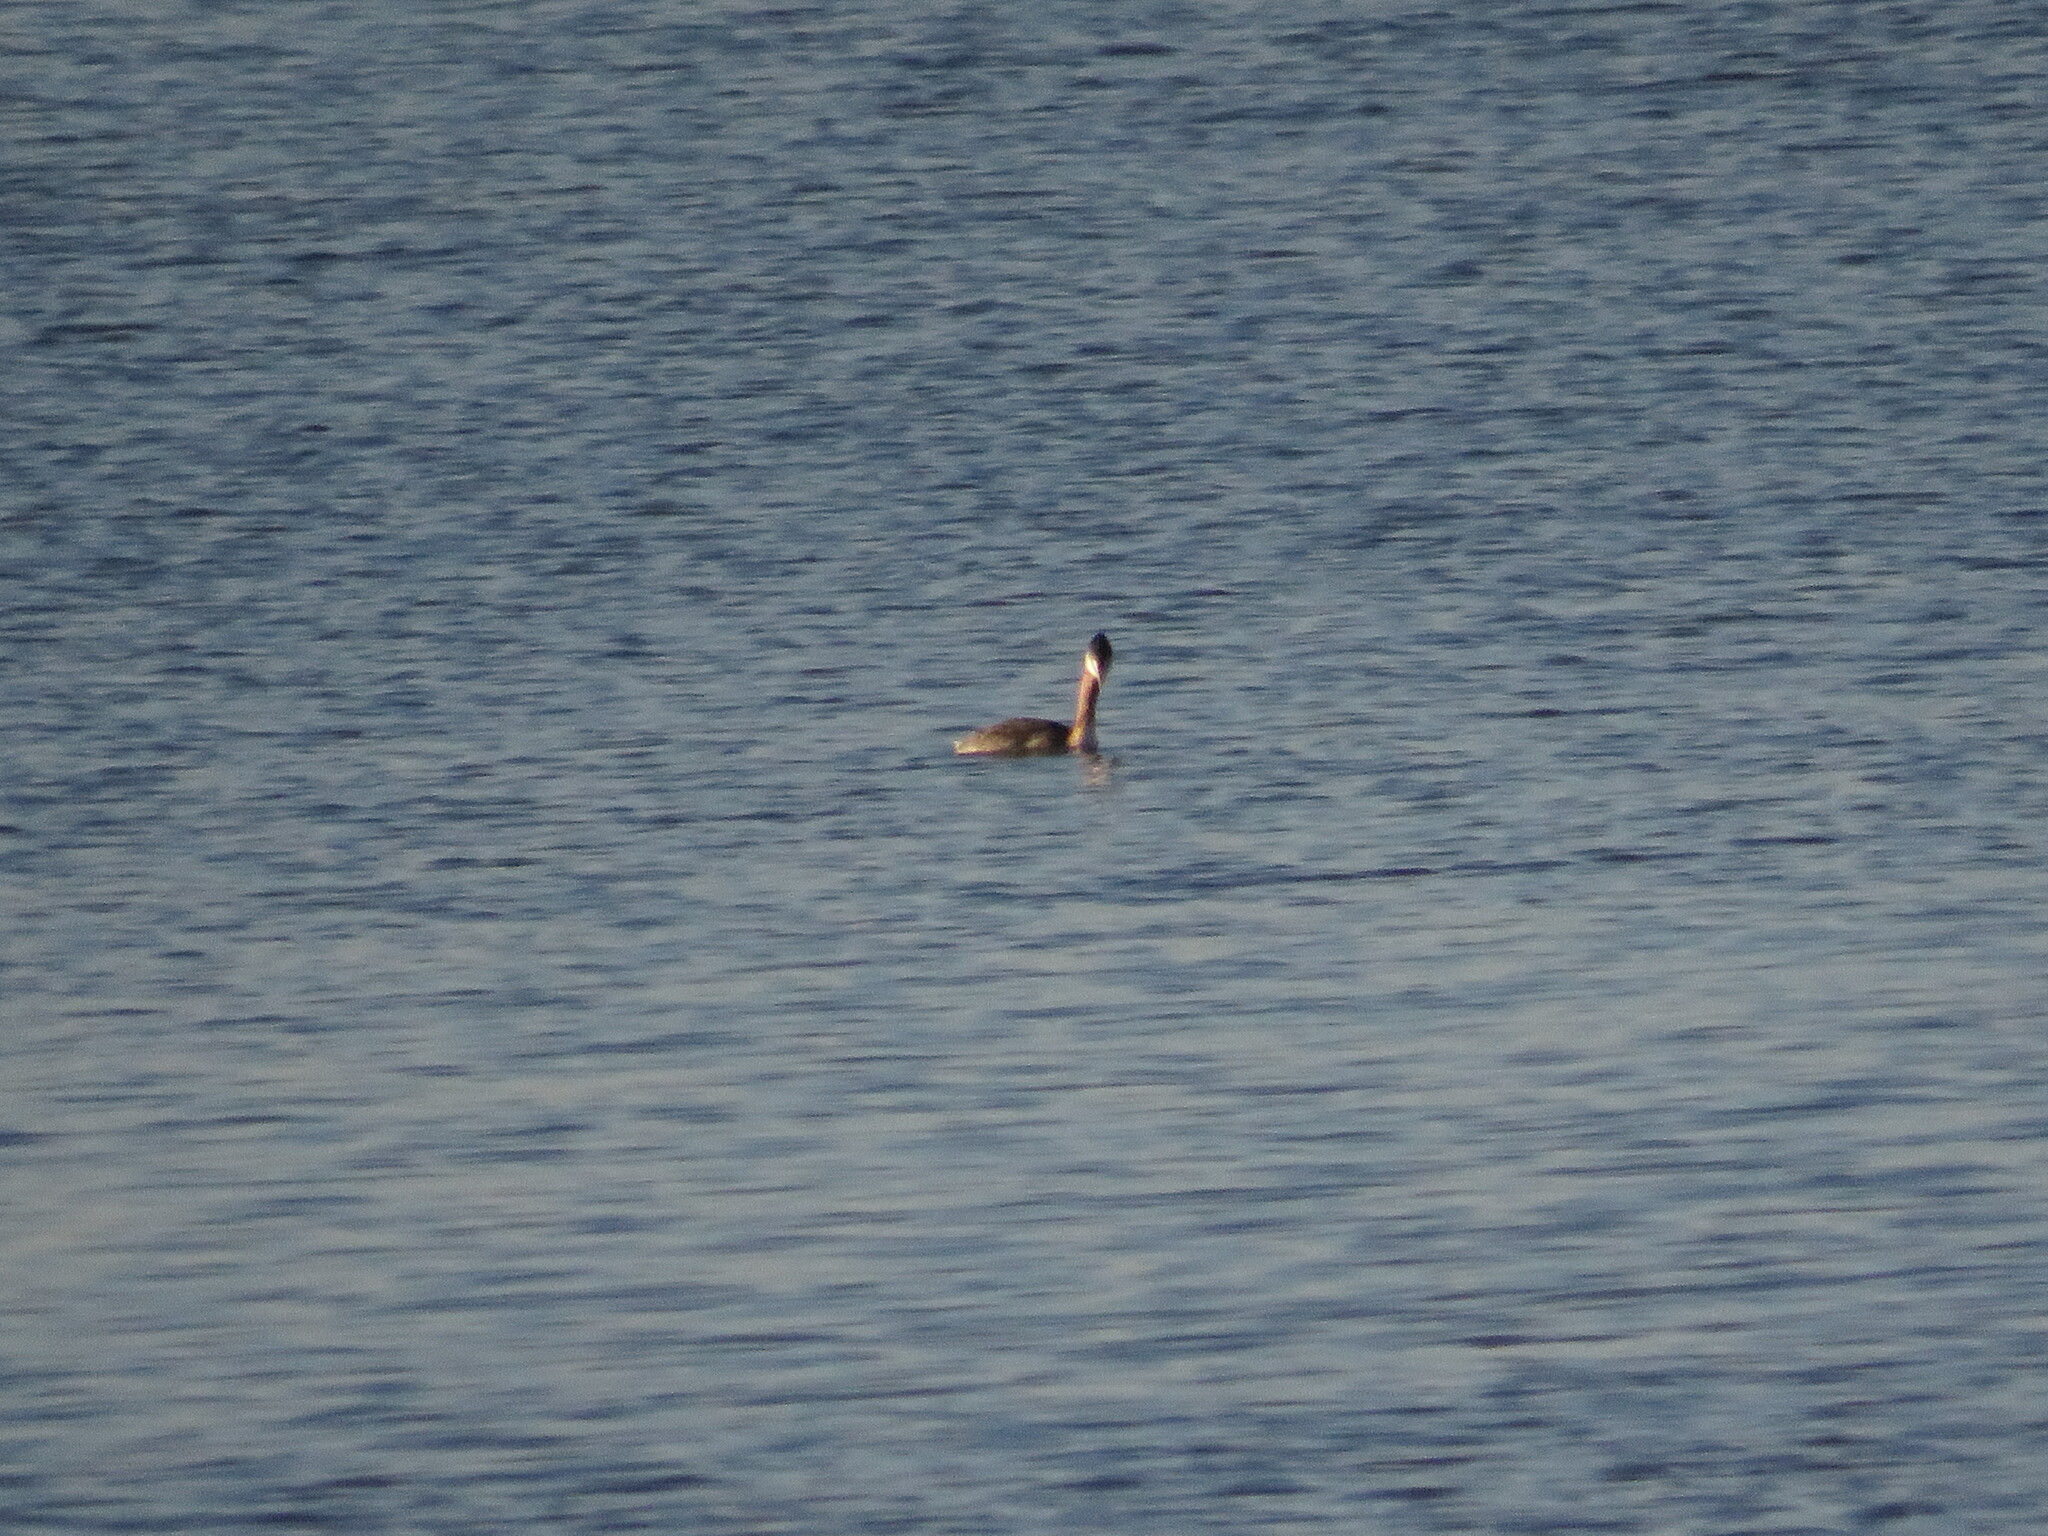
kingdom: Animalia
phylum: Chordata
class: Aves
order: Podicipediformes
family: Podicipedidae
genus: Podiceps
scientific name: Podiceps major
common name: Great grebe
